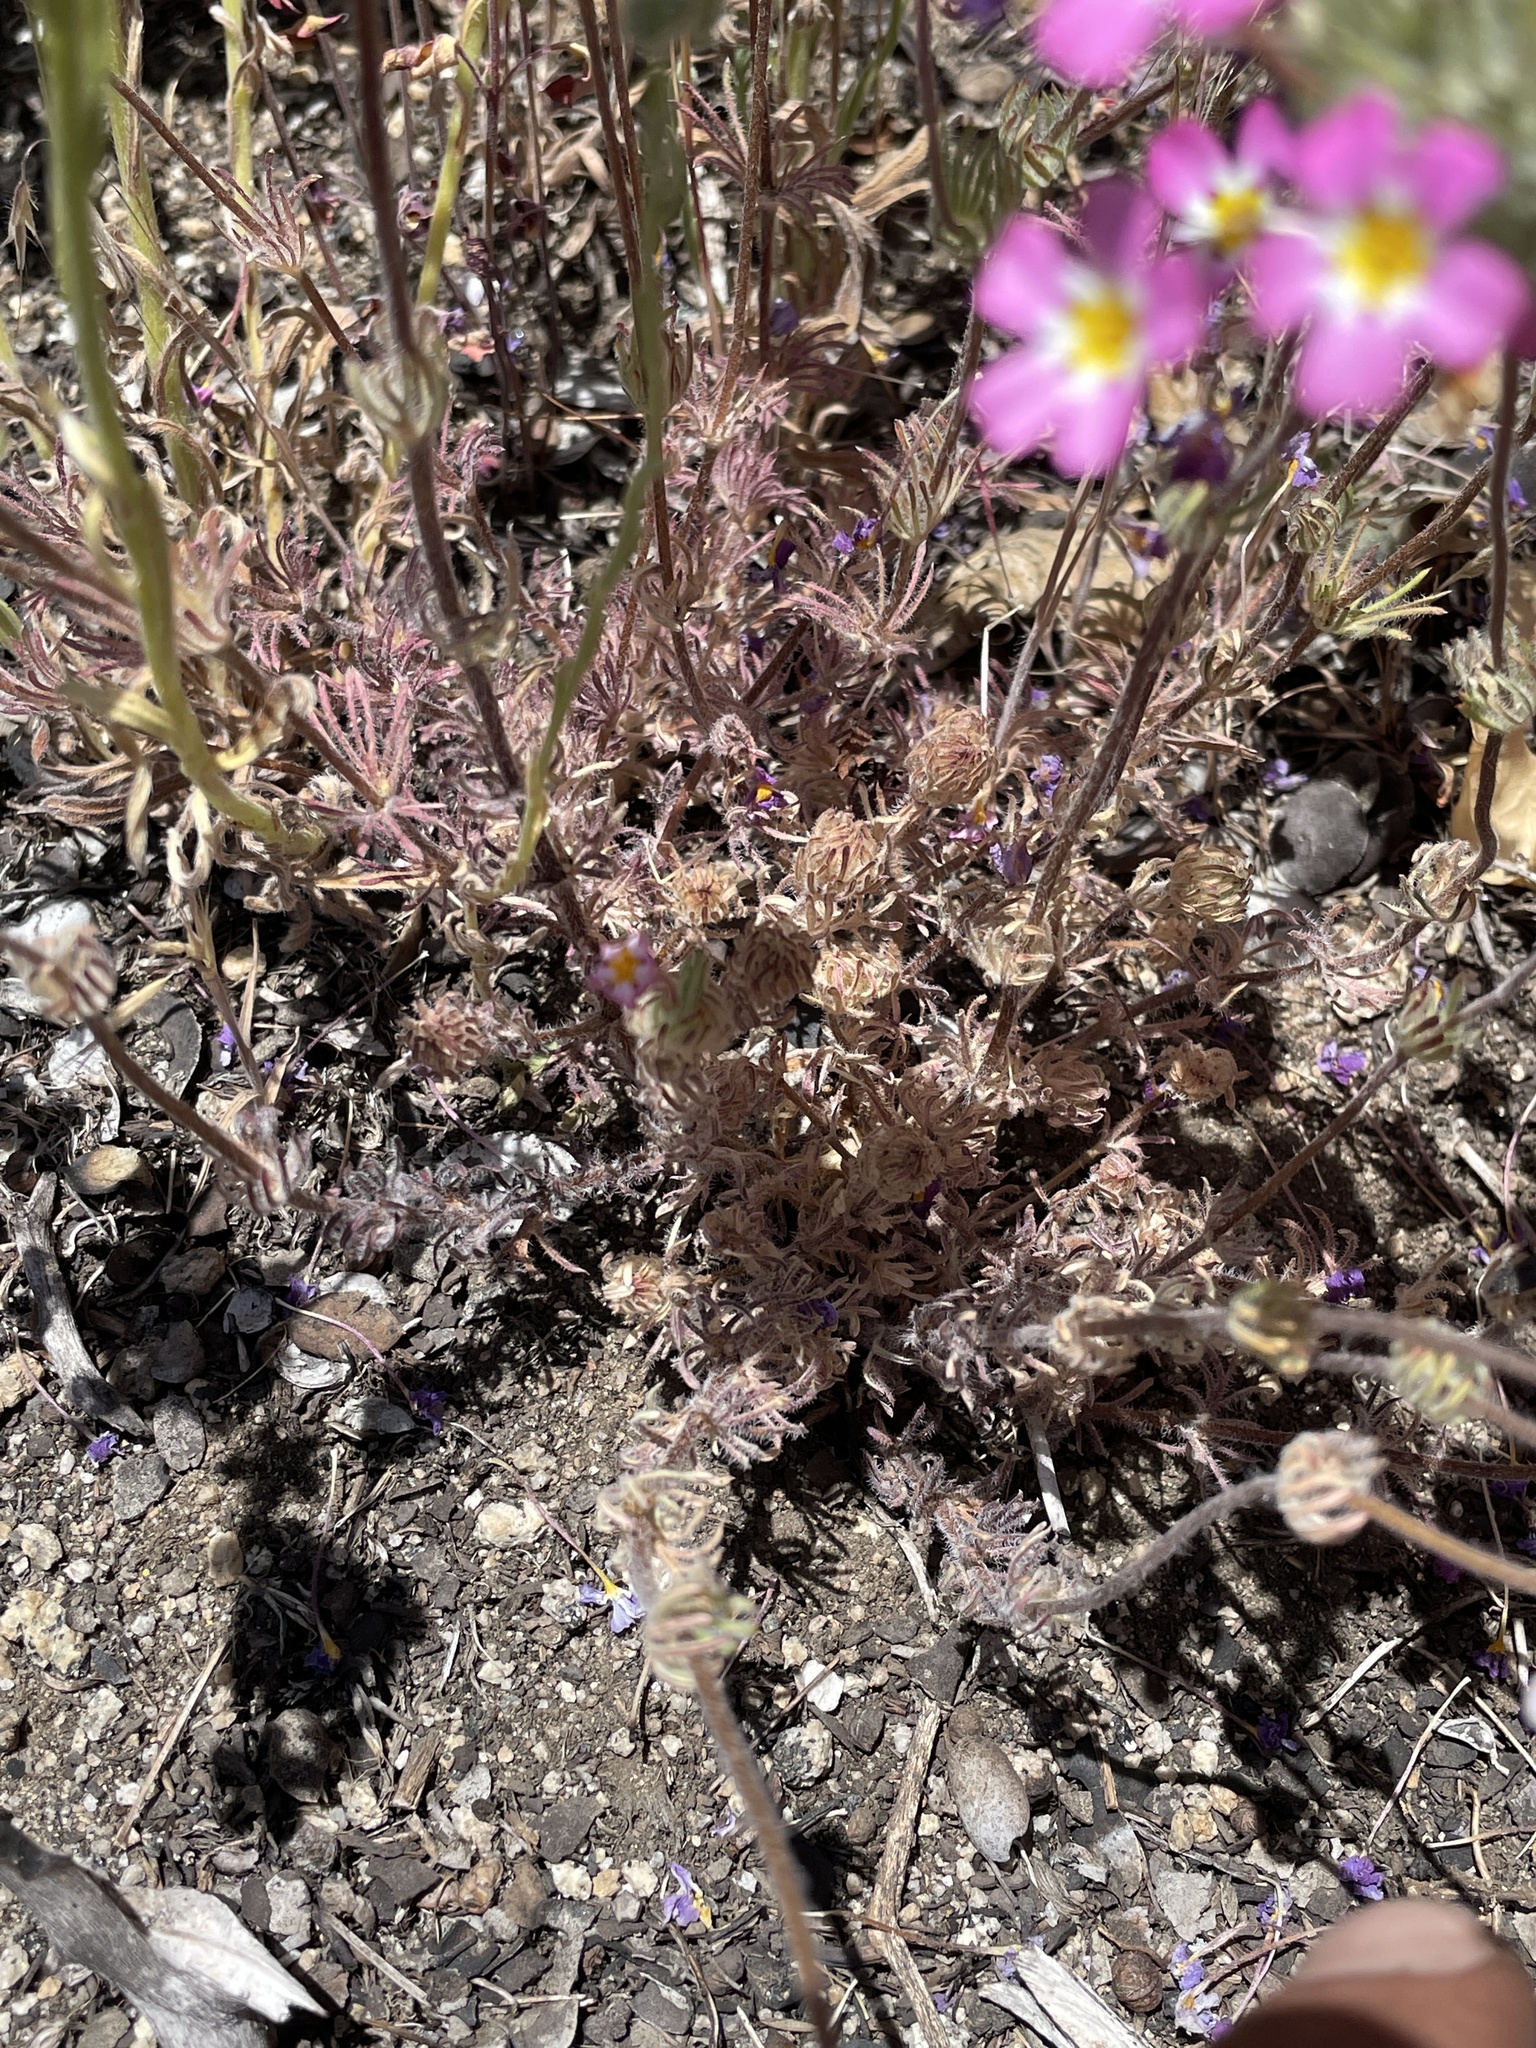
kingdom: Plantae
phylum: Tracheophyta
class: Magnoliopsida
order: Ericales
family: Polemoniaceae
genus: Leptosiphon
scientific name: Leptosiphon ciliatus
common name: Whiskerbrush
